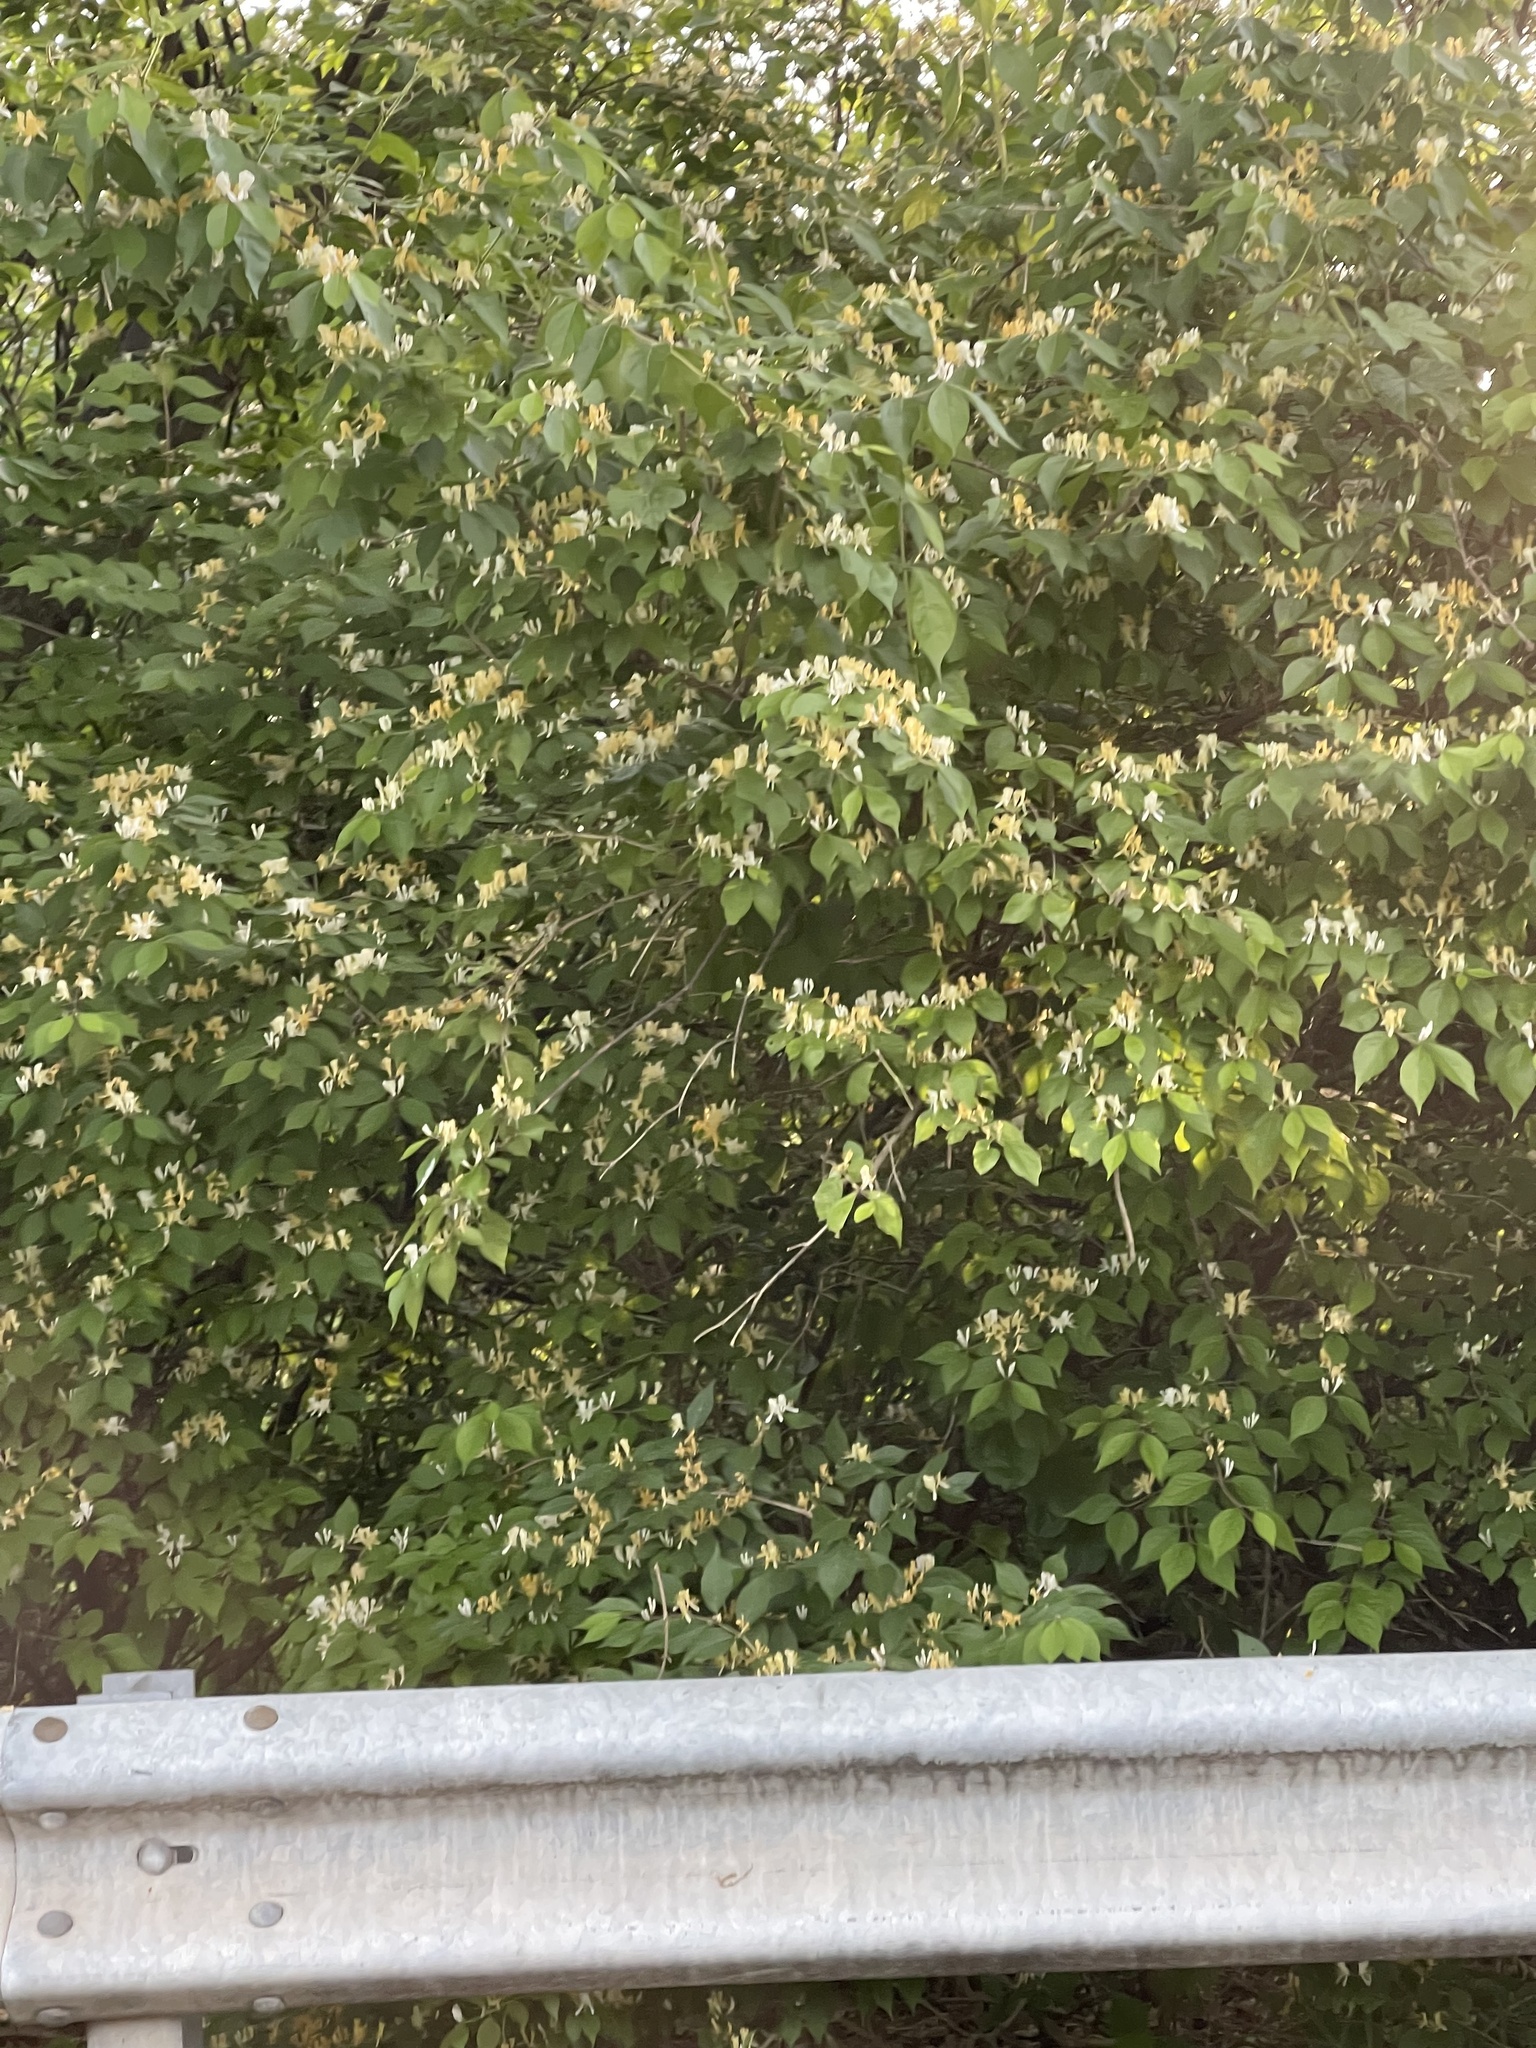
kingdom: Plantae
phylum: Tracheophyta
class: Magnoliopsida
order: Dipsacales
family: Caprifoliaceae
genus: Lonicera
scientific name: Lonicera maackii
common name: Amur honeysuckle
